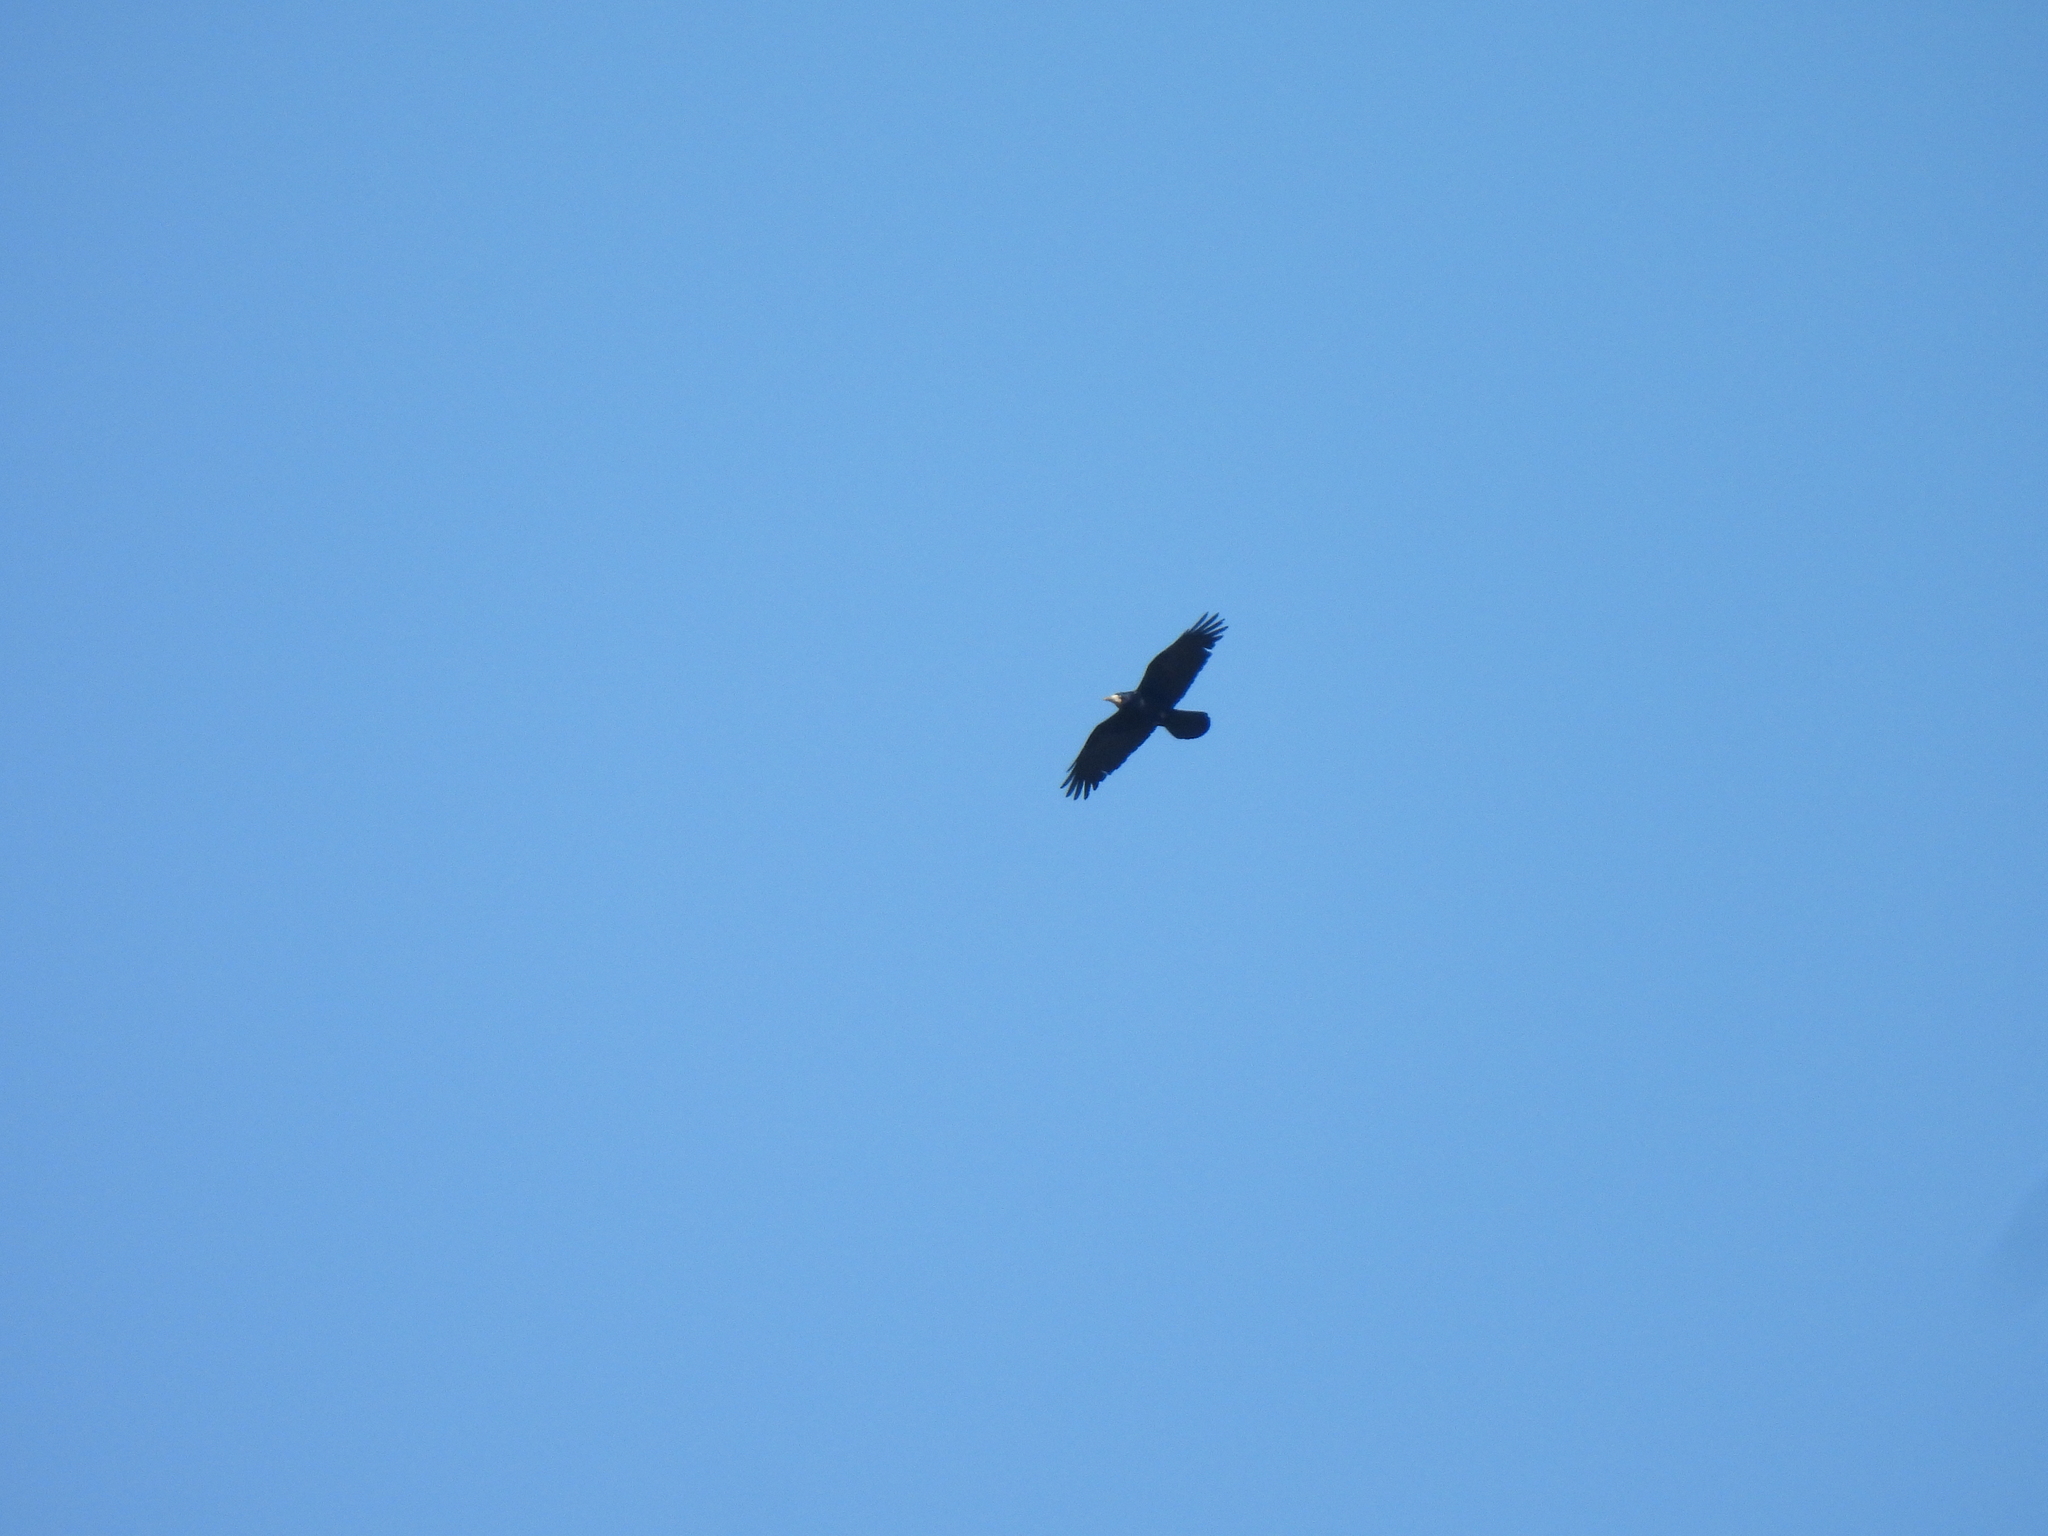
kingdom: Animalia
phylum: Chordata
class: Aves
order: Passeriformes
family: Corvidae
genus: Corvus
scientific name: Corvus frugilegus
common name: Rook
